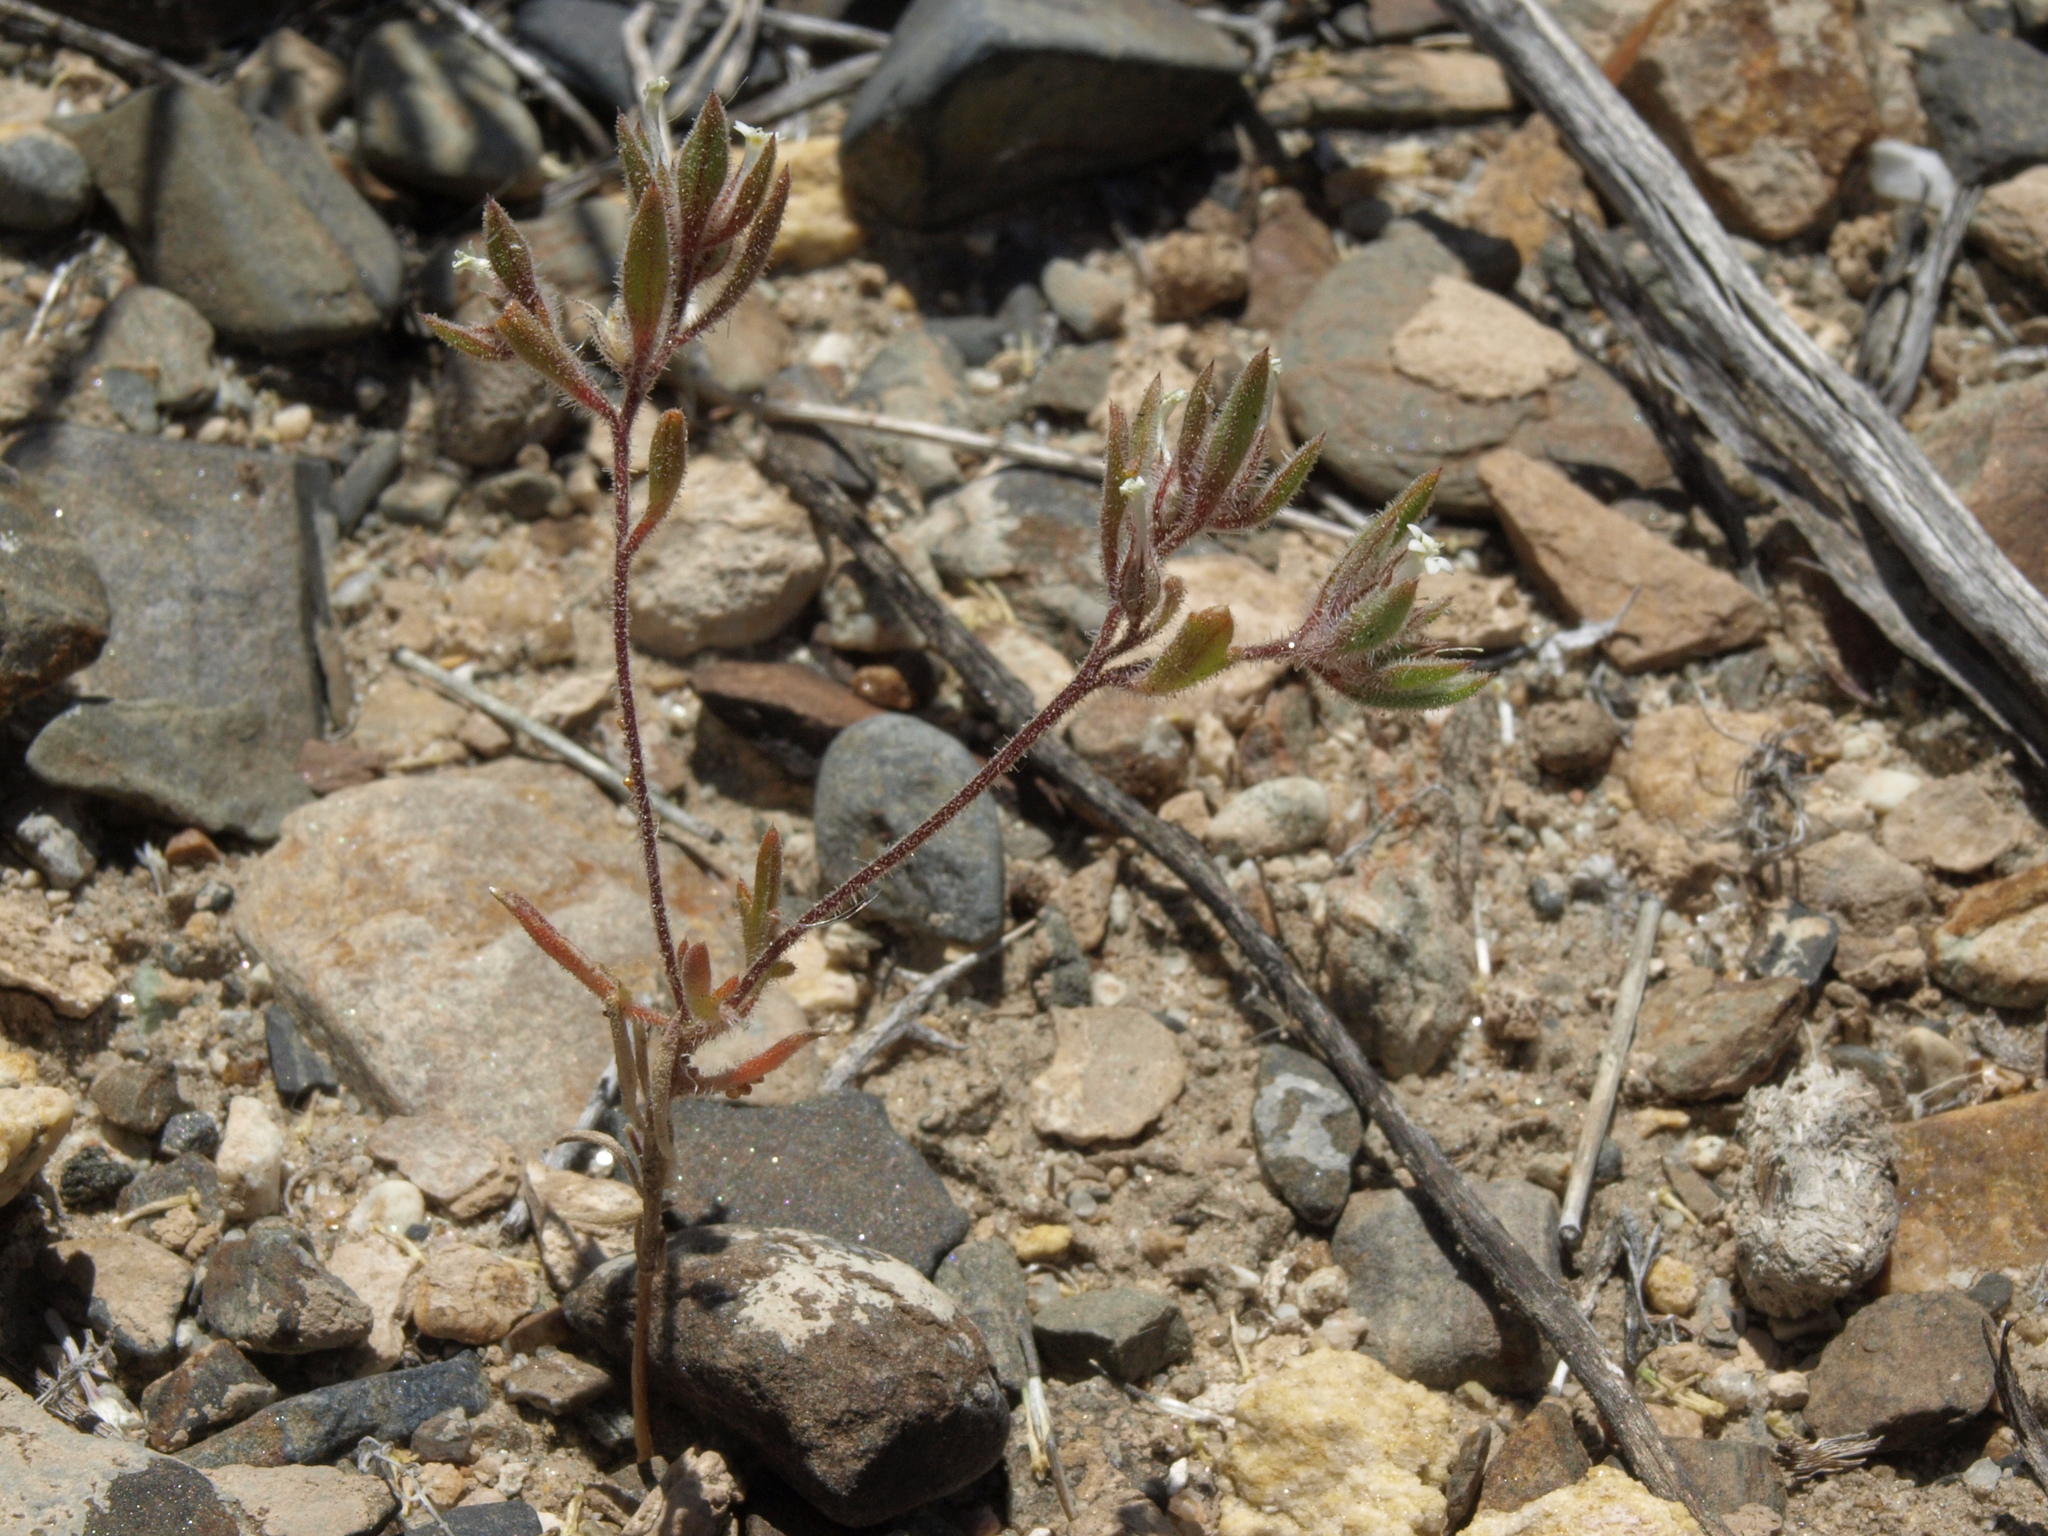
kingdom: Plantae
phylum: Tracheophyta
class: Magnoliopsida
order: Ericales
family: Polemoniaceae
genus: Loeseliastrum
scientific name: Loeseliastrum depressum
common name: Depressed ipomopsis
